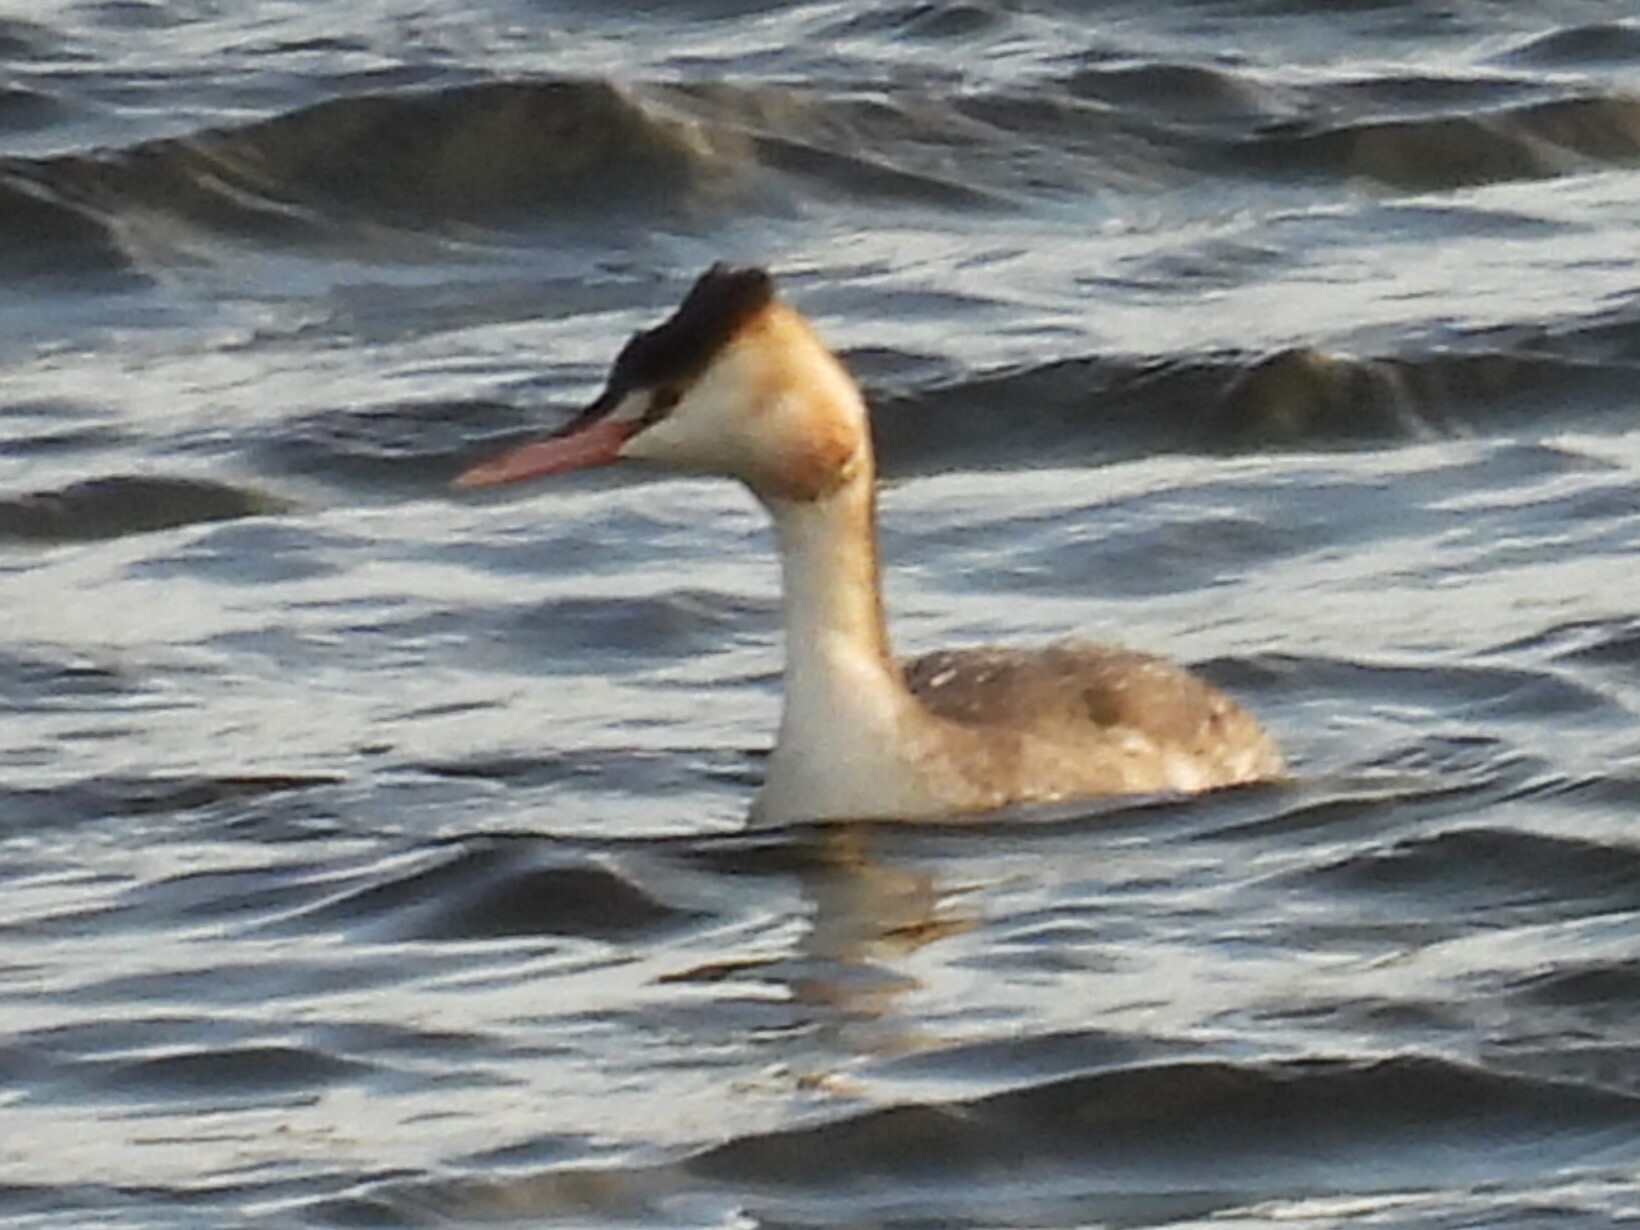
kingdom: Animalia
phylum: Chordata
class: Aves
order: Podicipediformes
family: Podicipedidae
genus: Podiceps
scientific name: Podiceps cristatus
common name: Great crested grebe
